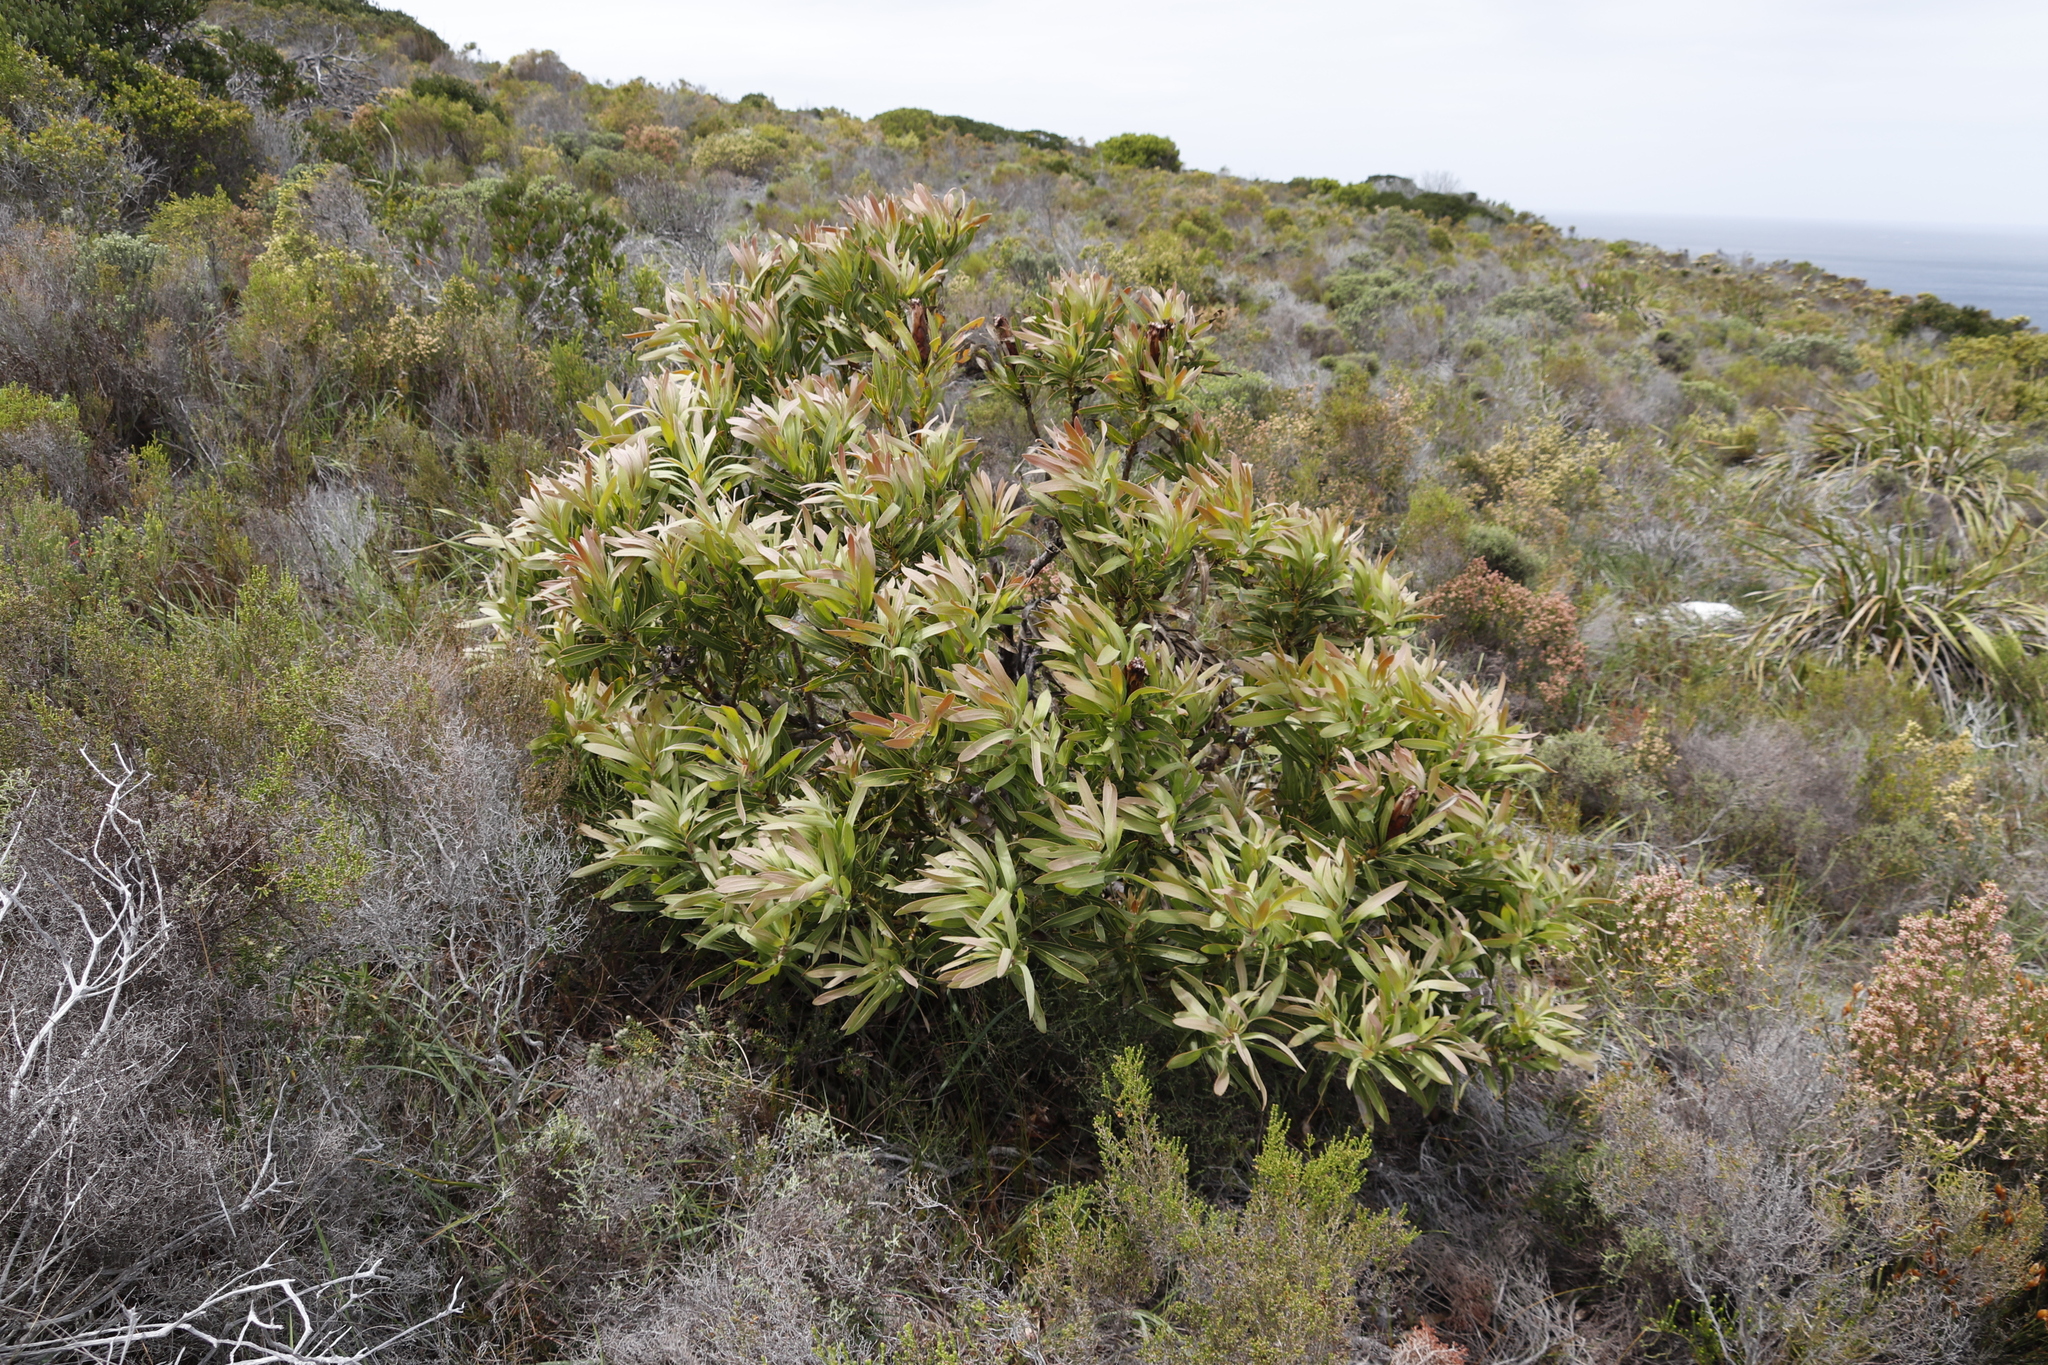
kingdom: Plantae
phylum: Tracheophyta
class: Magnoliopsida
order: Proteales
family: Proteaceae
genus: Protea
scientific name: Protea lepidocarpodendron
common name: Black-bearded protea
